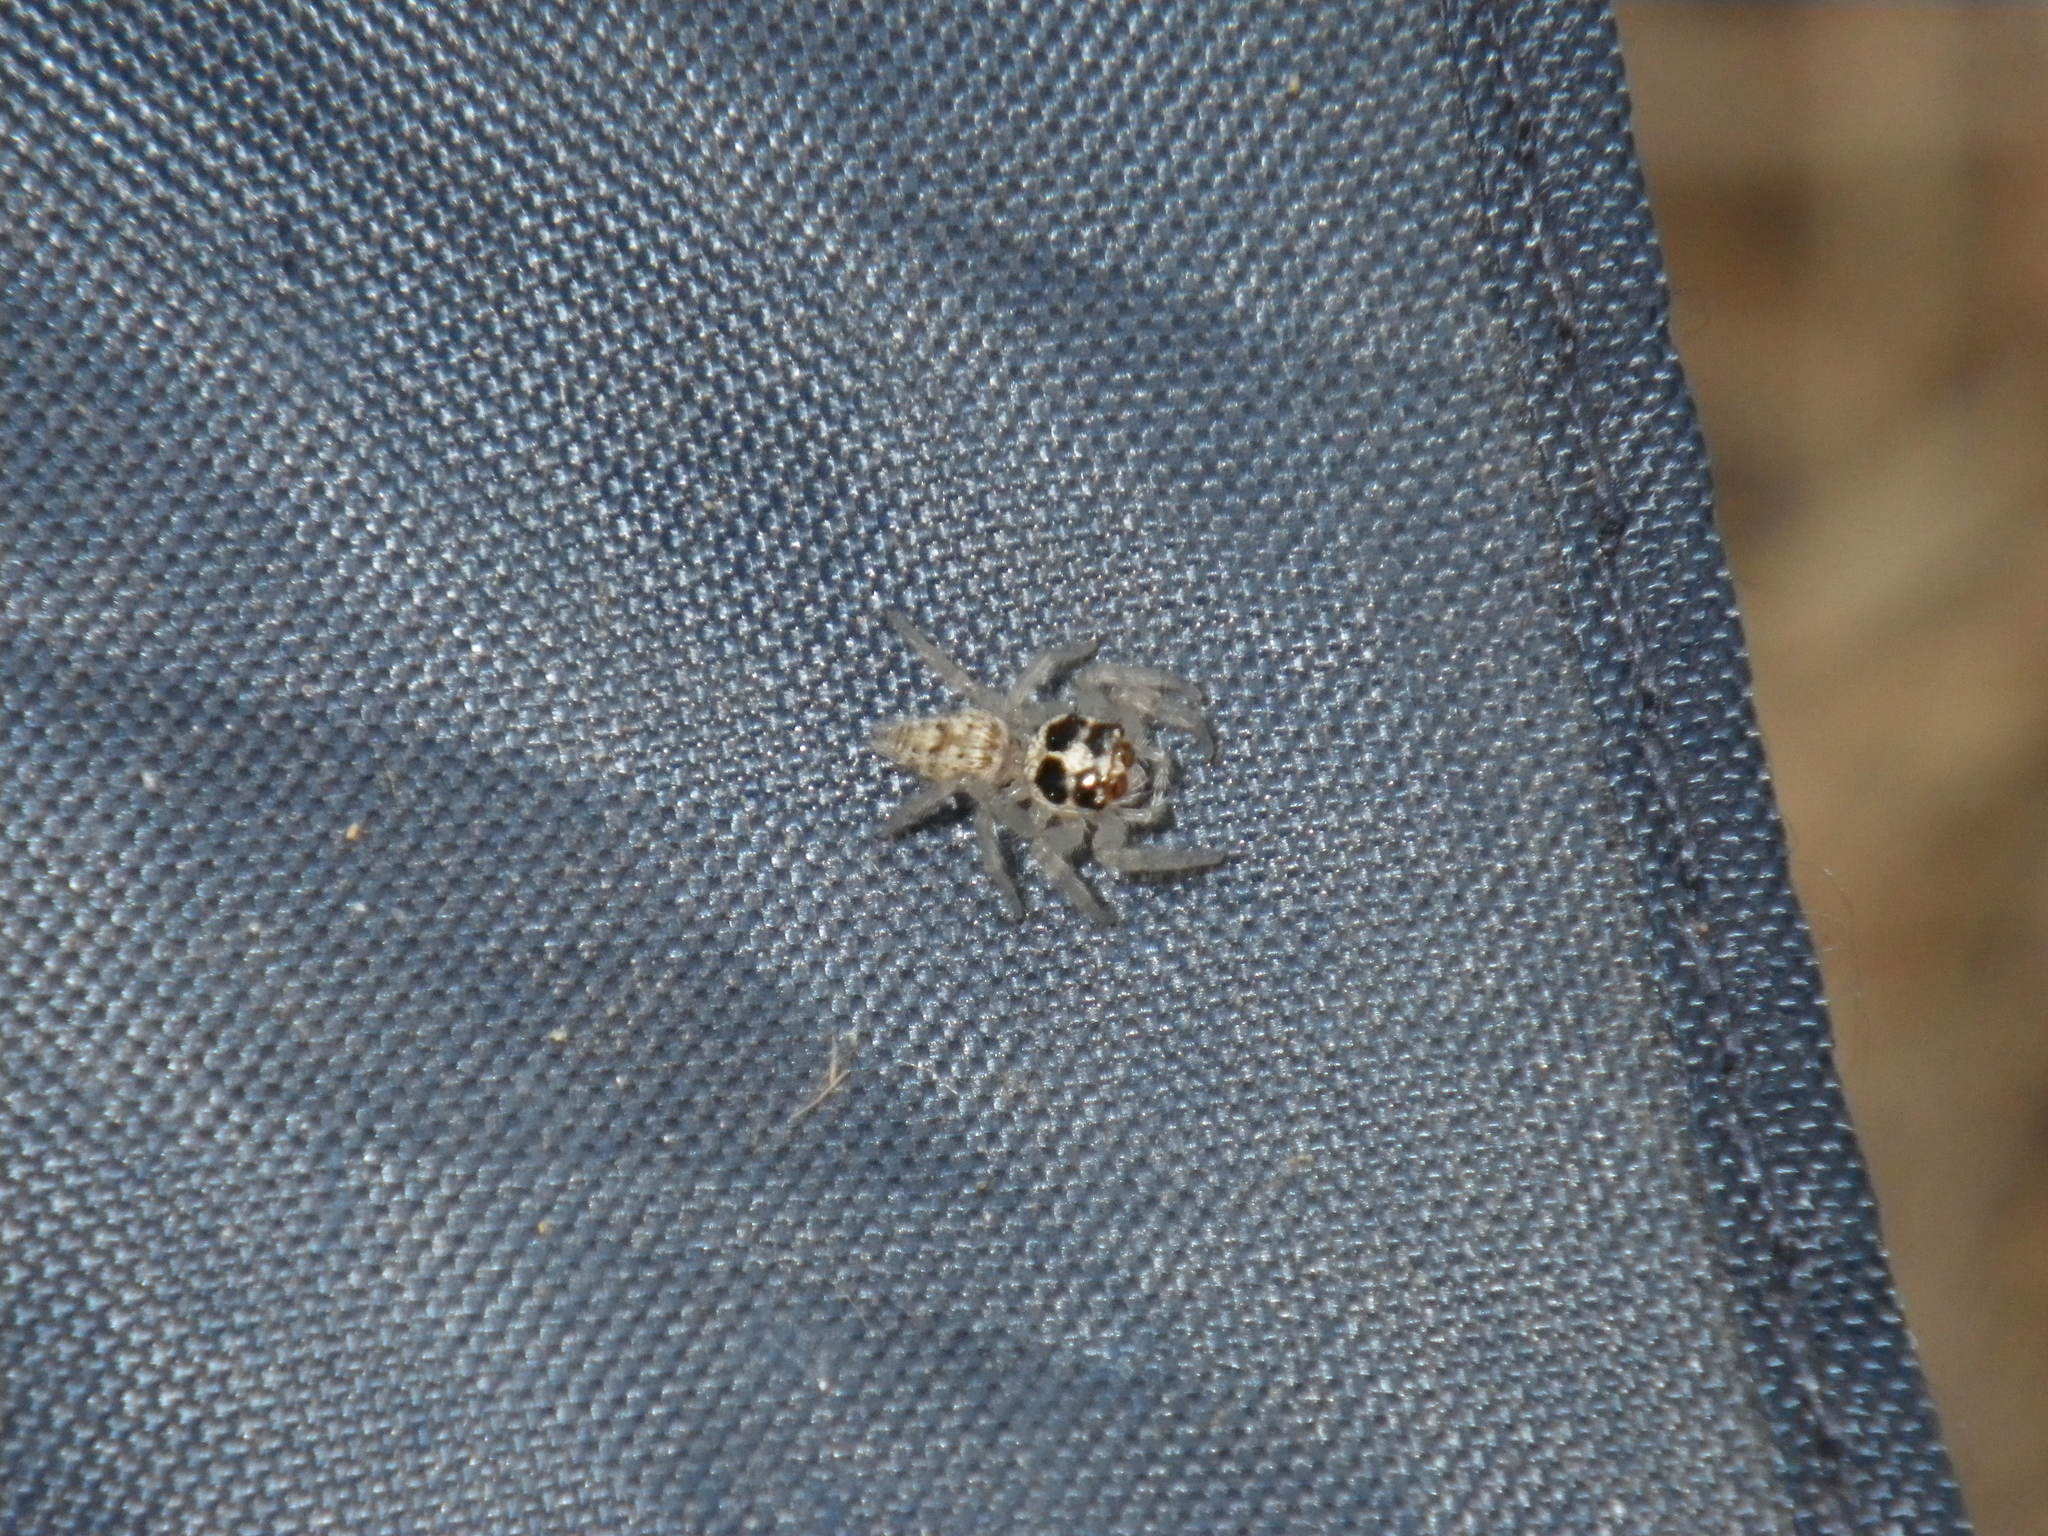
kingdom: Animalia
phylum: Arthropoda
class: Arachnida
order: Araneae
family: Salticidae
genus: Colonus
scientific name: Colonus hesperus
